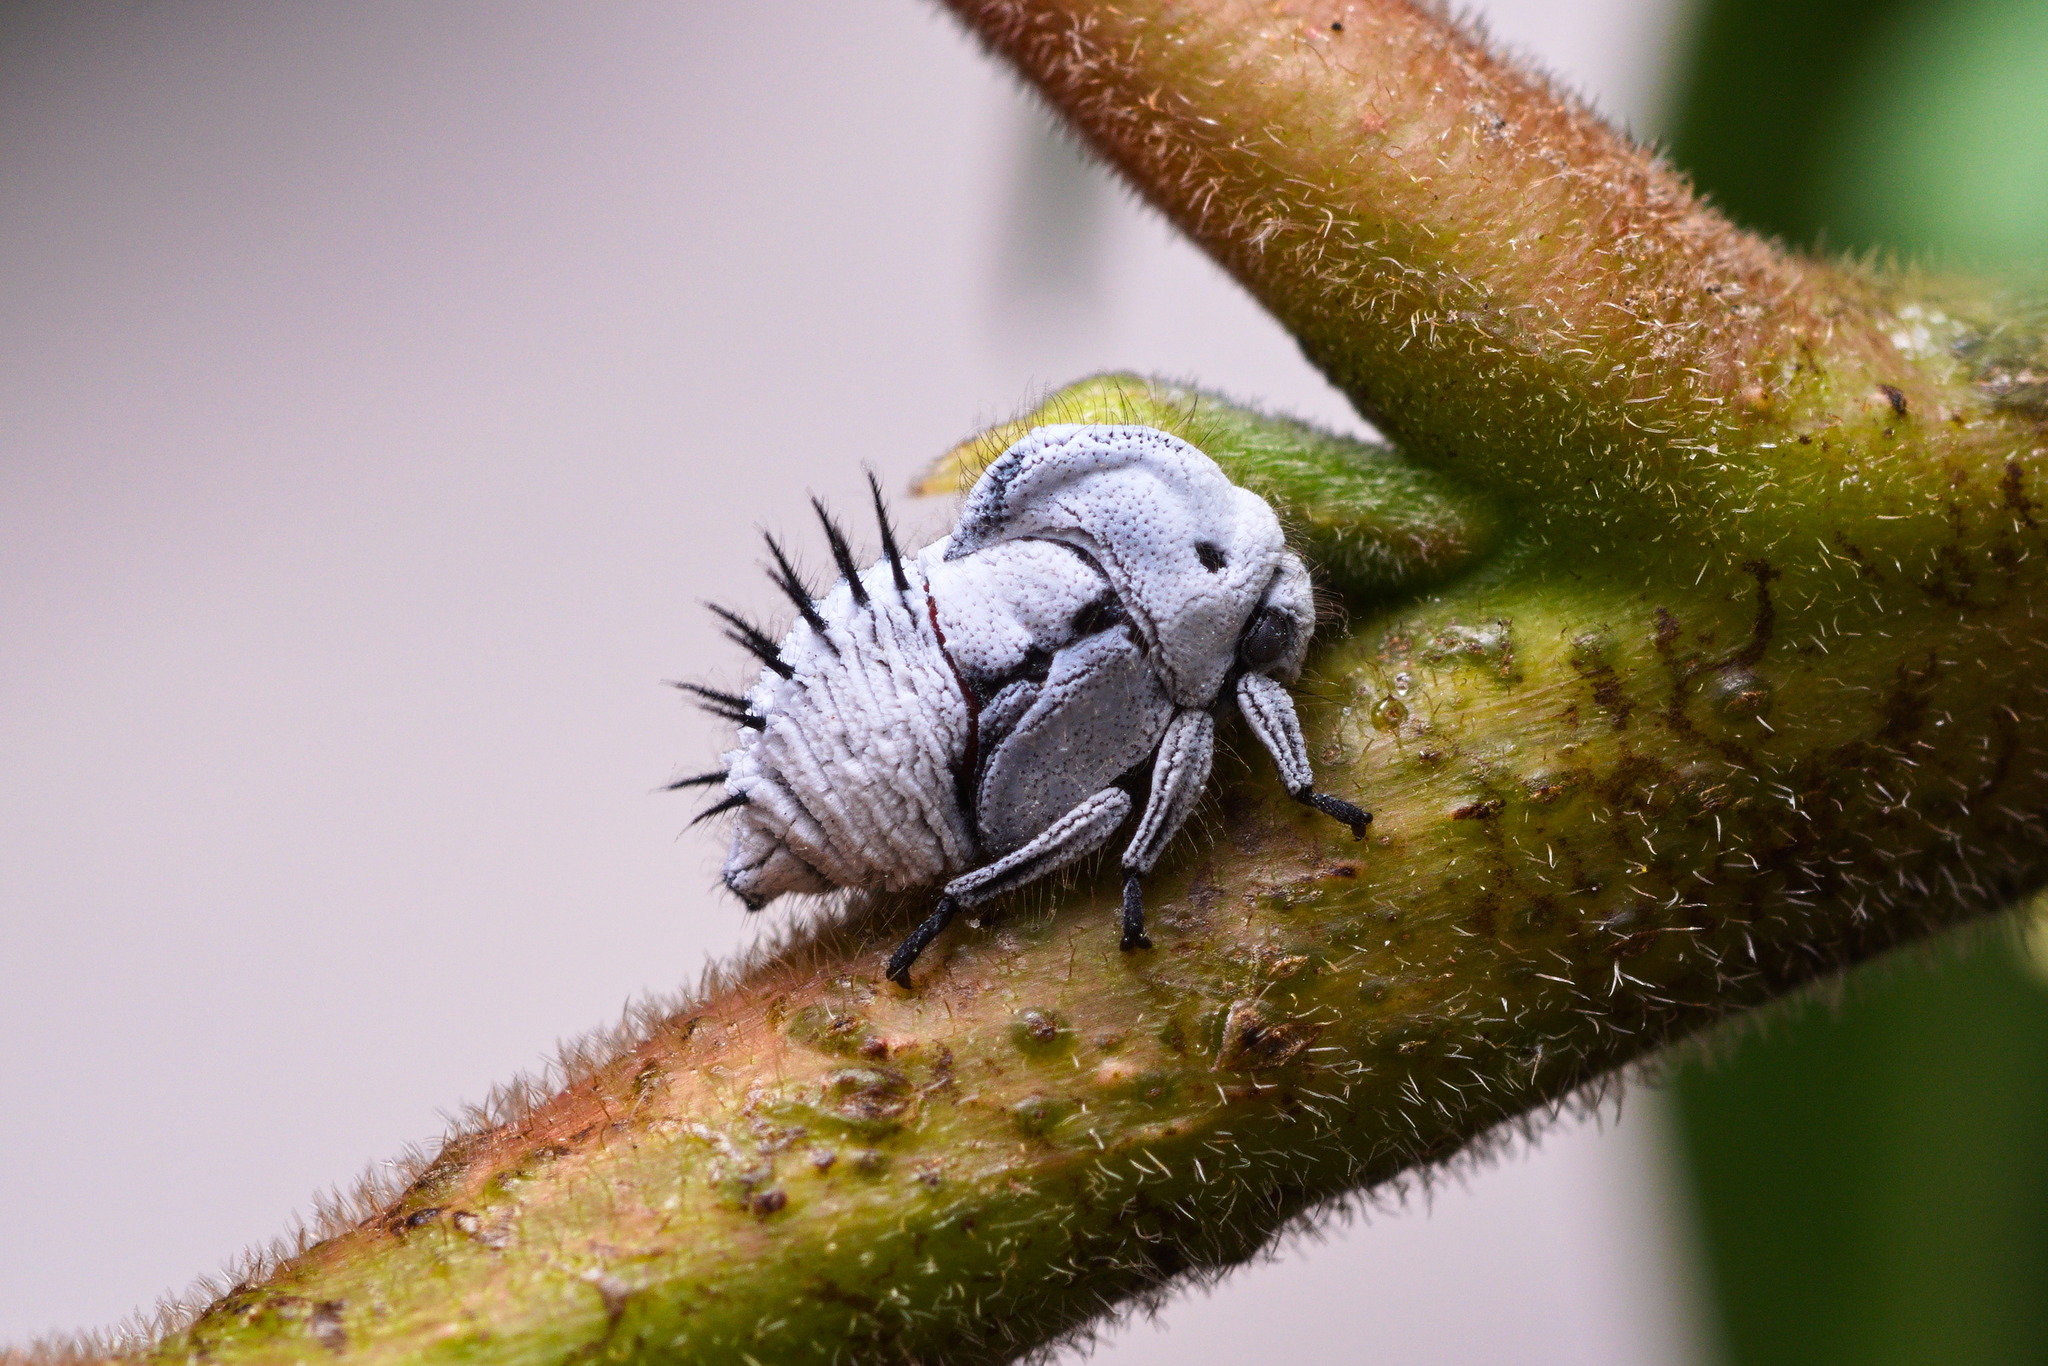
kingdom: Animalia
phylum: Arthropoda
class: Insecta
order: Hemiptera
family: Membracidae
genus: Membracis
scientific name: Membracis mexicana
